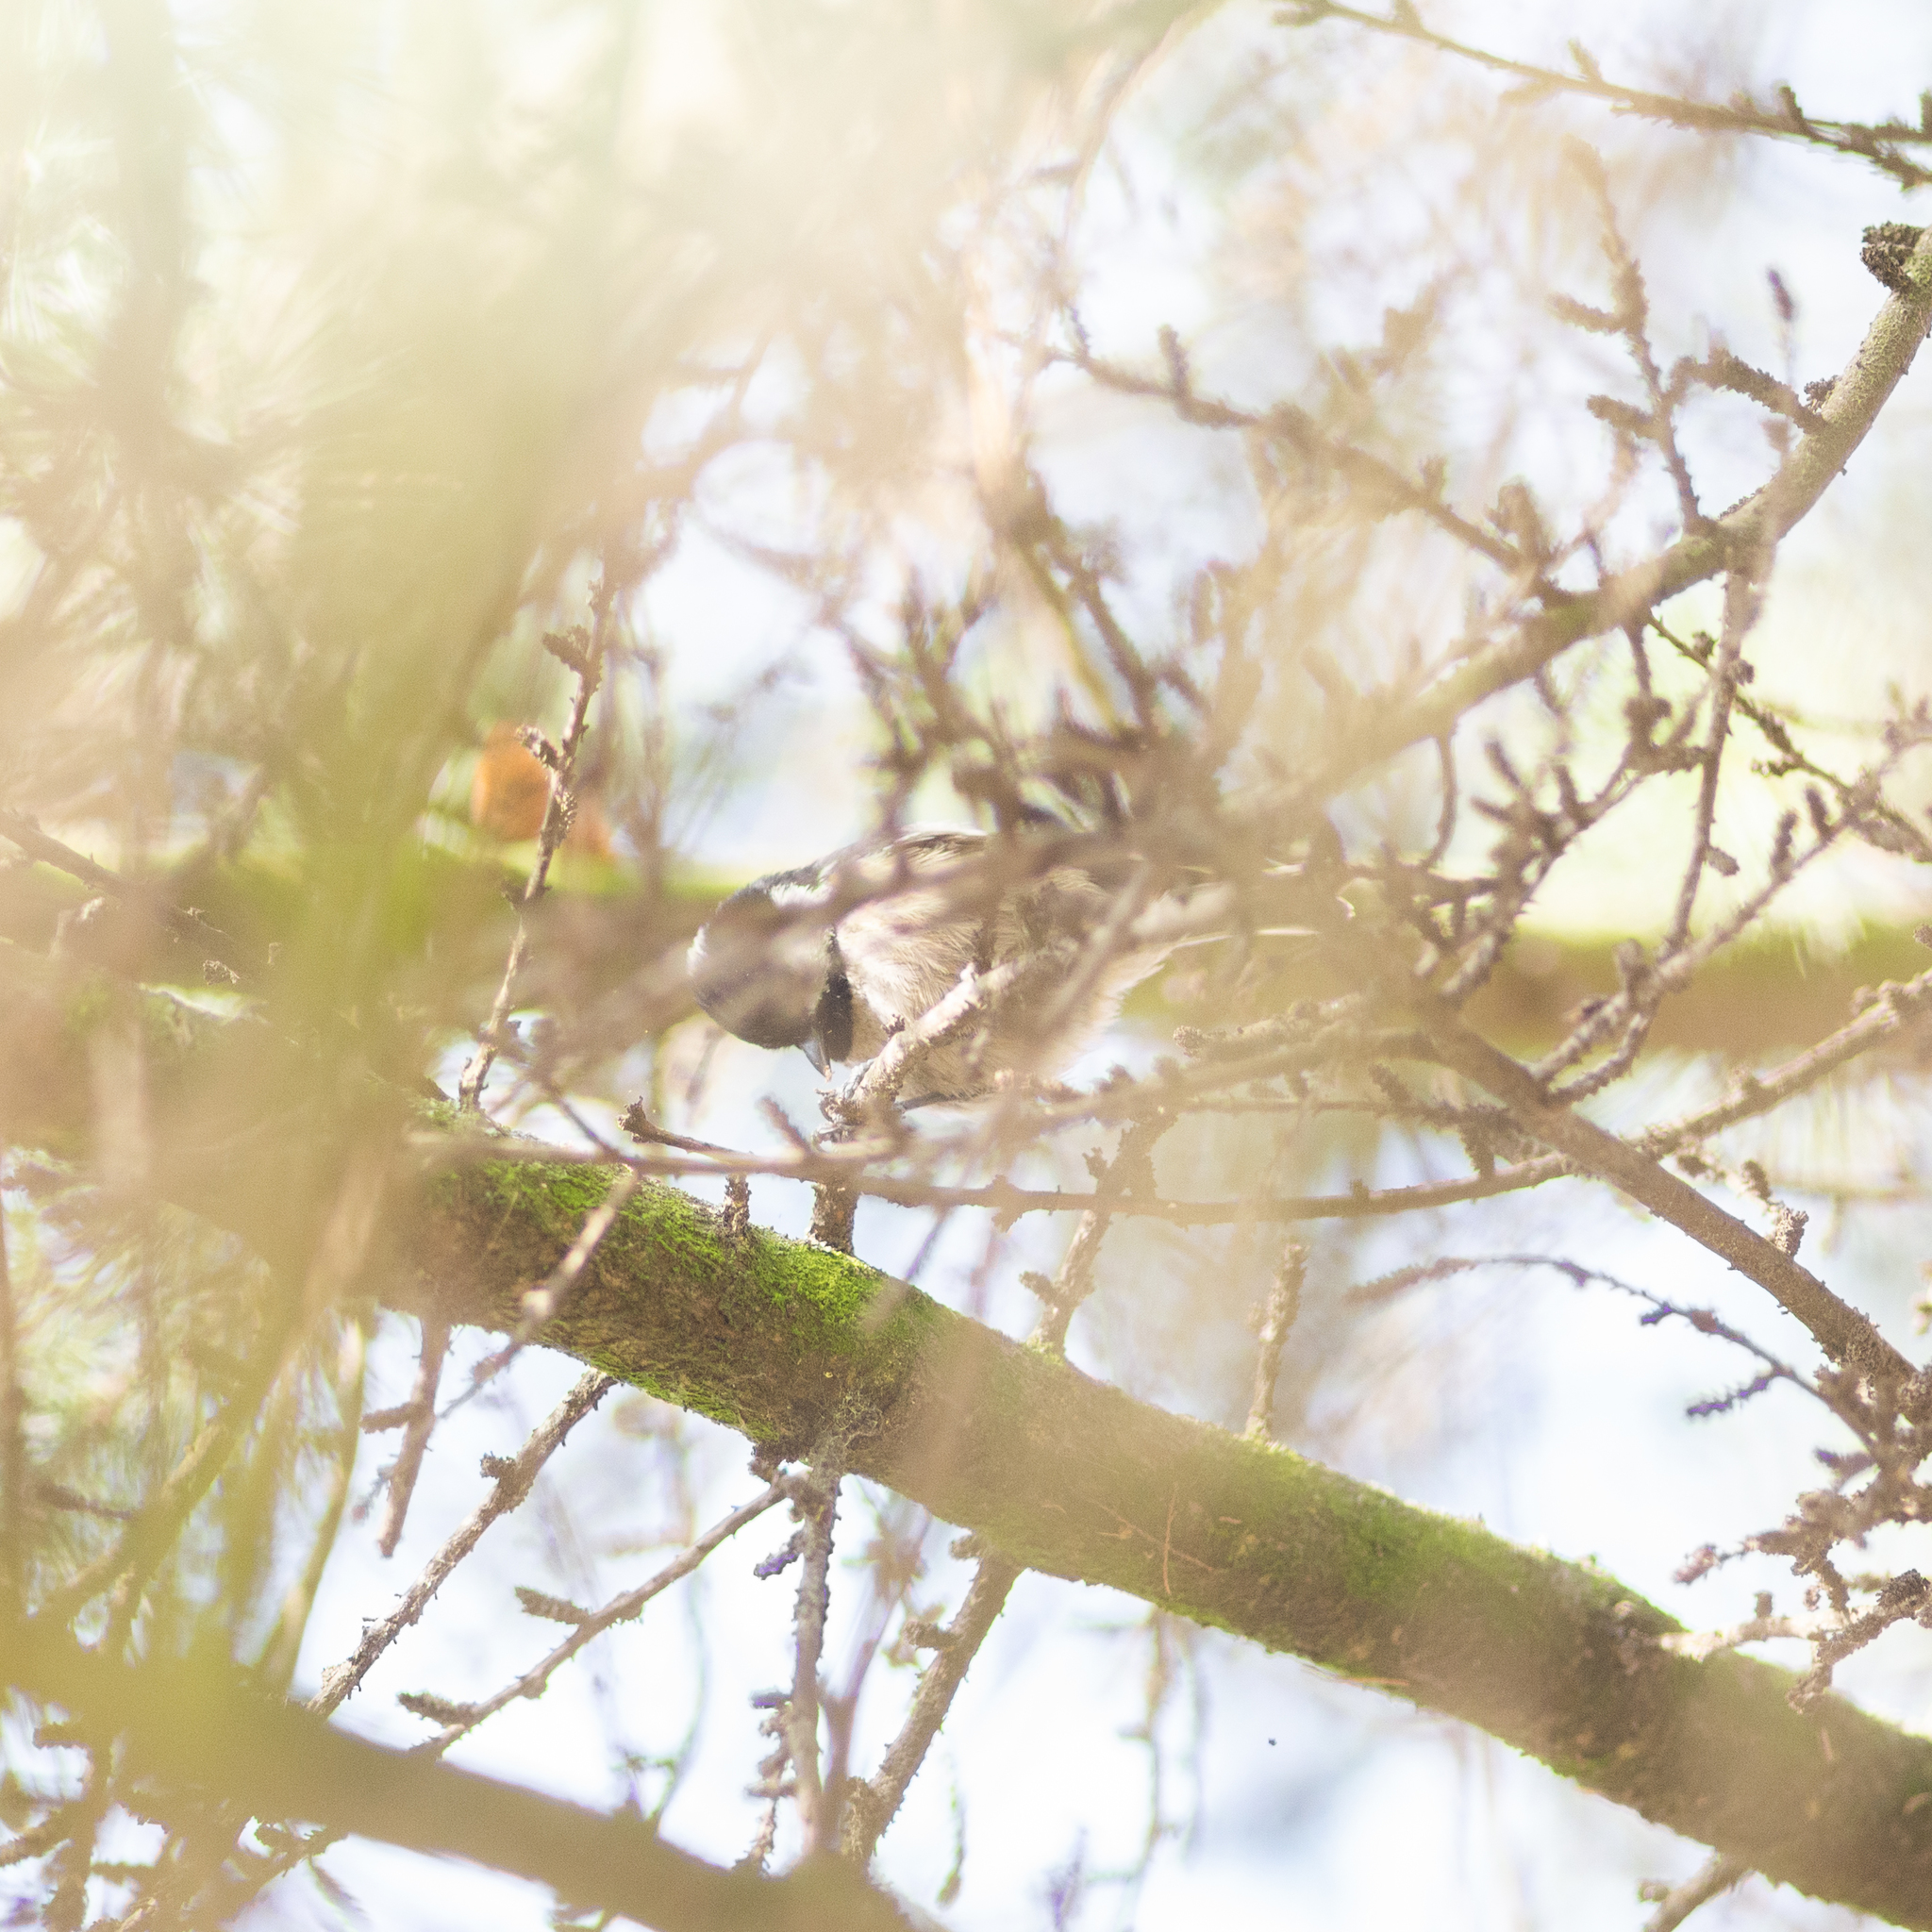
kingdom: Animalia
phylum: Chordata
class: Aves
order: Passeriformes
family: Paridae
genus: Periparus
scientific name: Periparus ater
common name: Coal tit
